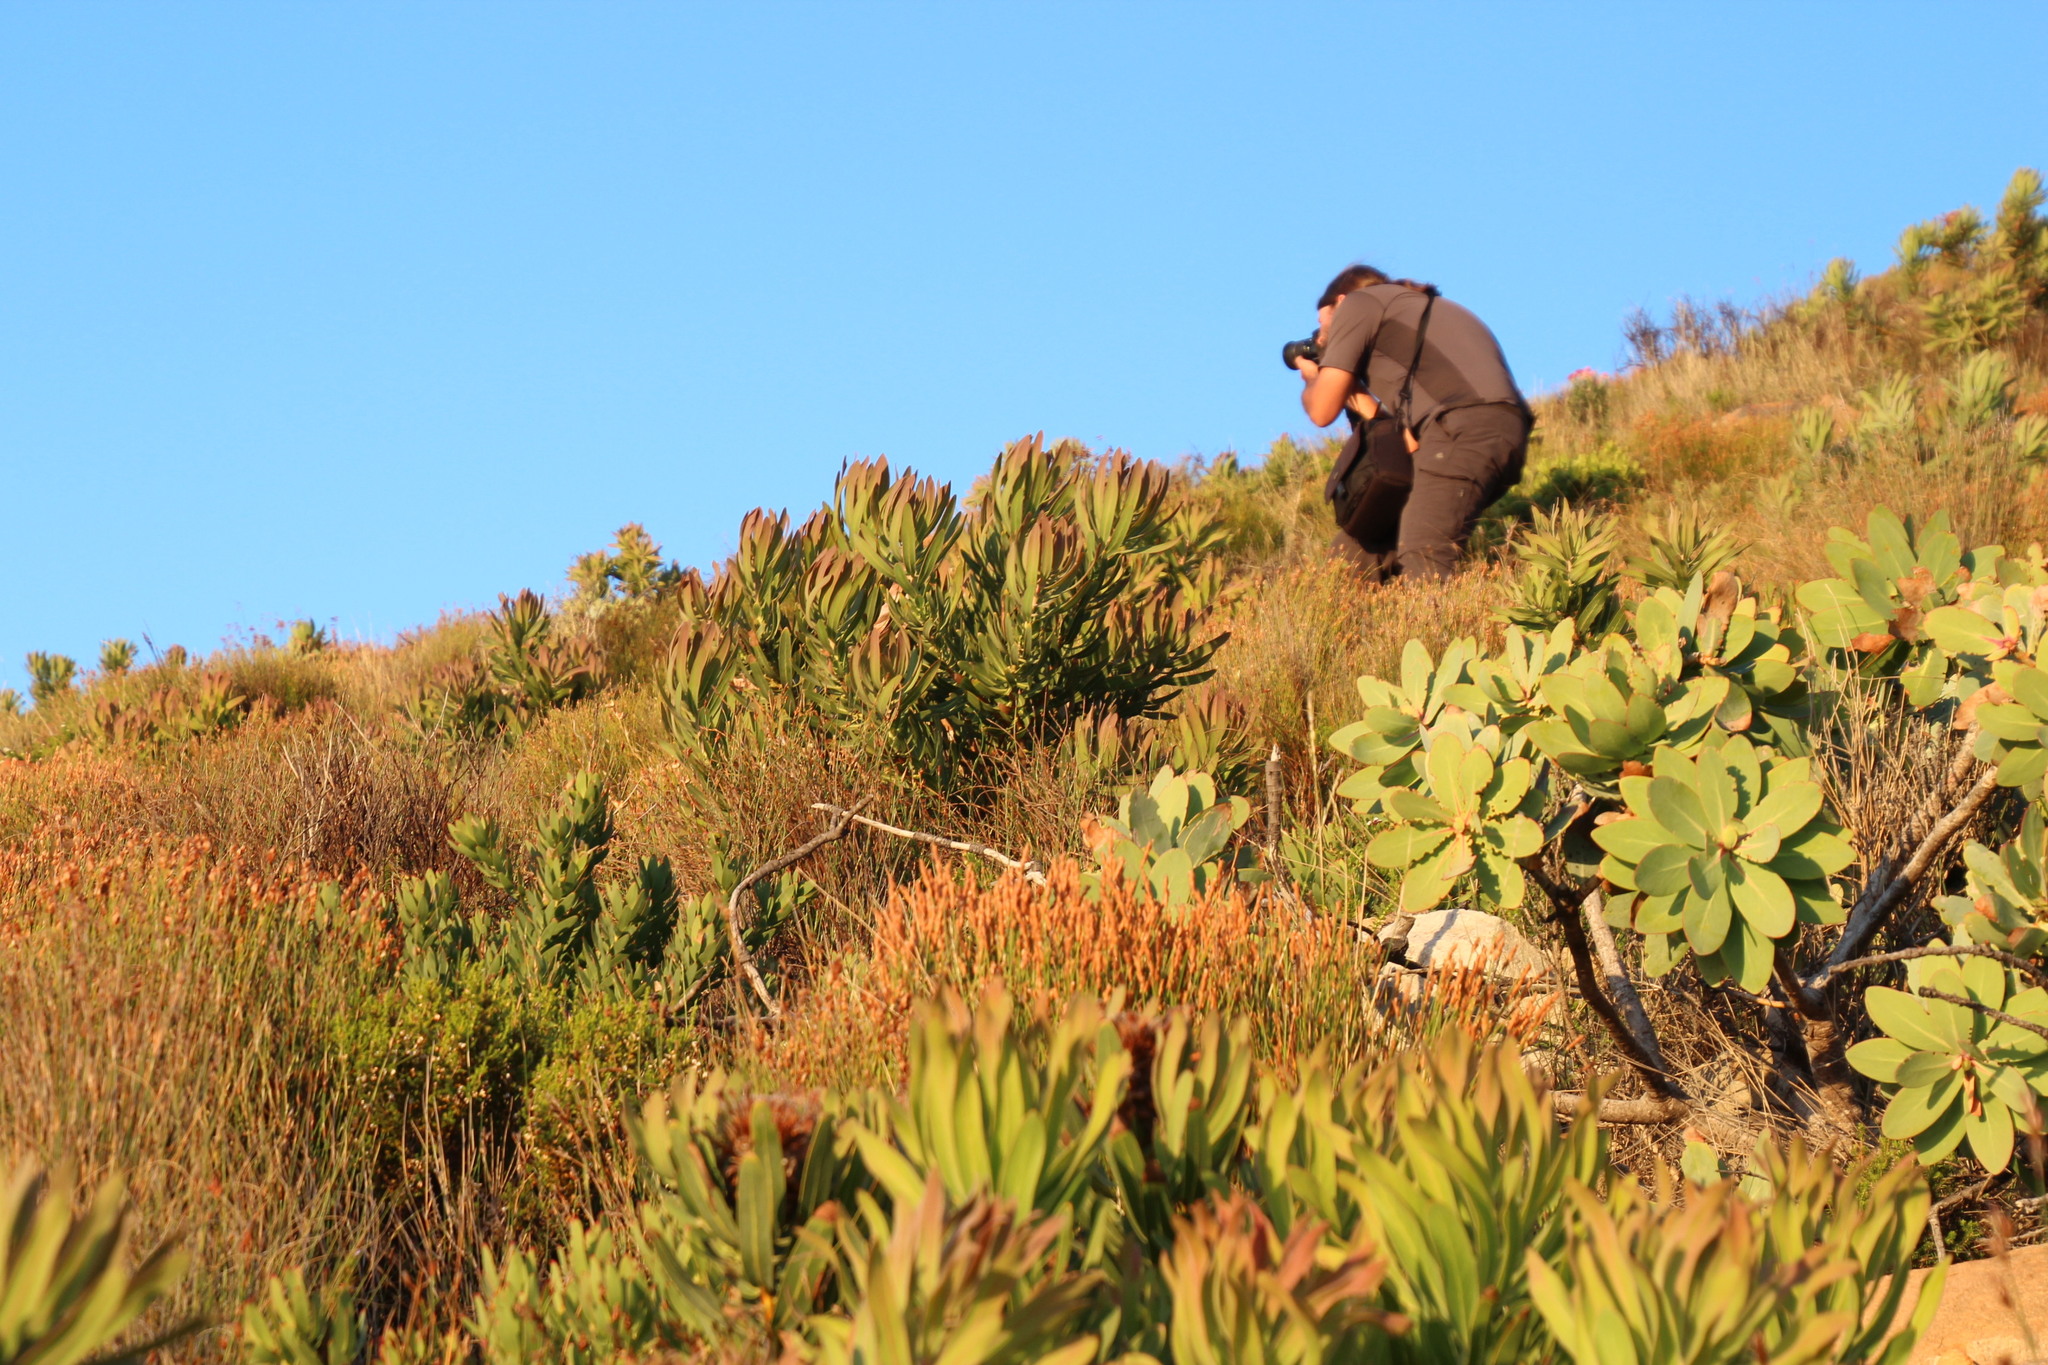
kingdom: Plantae
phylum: Tracheophyta
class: Magnoliopsida
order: Proteales
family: Proteaceae
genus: Protea
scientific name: Protea neriifolia
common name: Blue sugarbush
